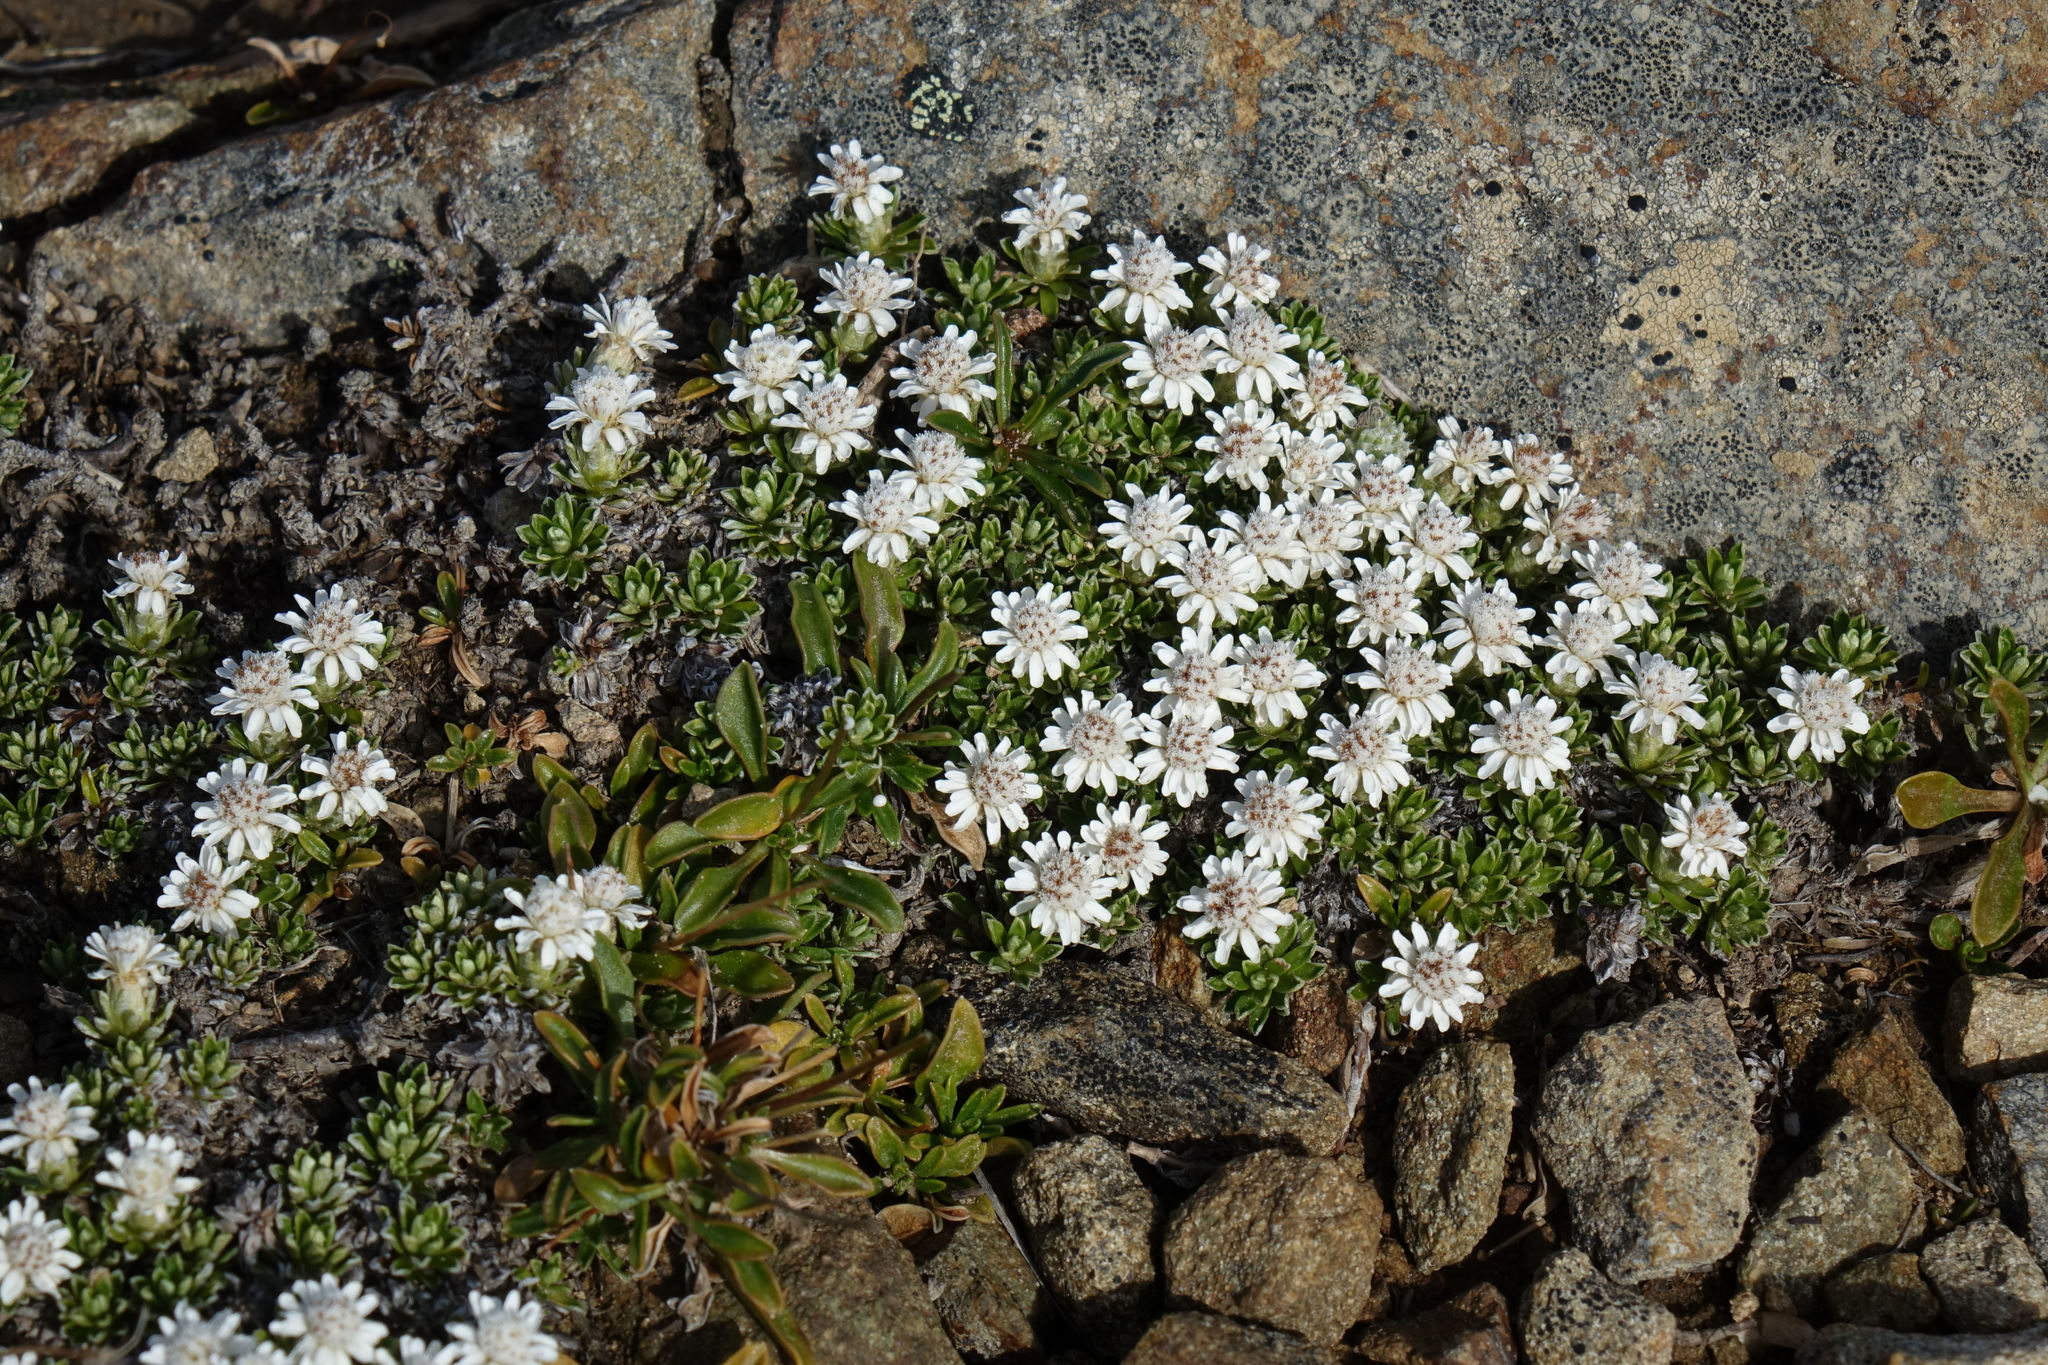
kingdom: Plantae
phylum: Tracheophyta
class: Magnoliopsida
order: Asterales
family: Asteraceae
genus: Raoulia
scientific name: Raoulia subsericea
